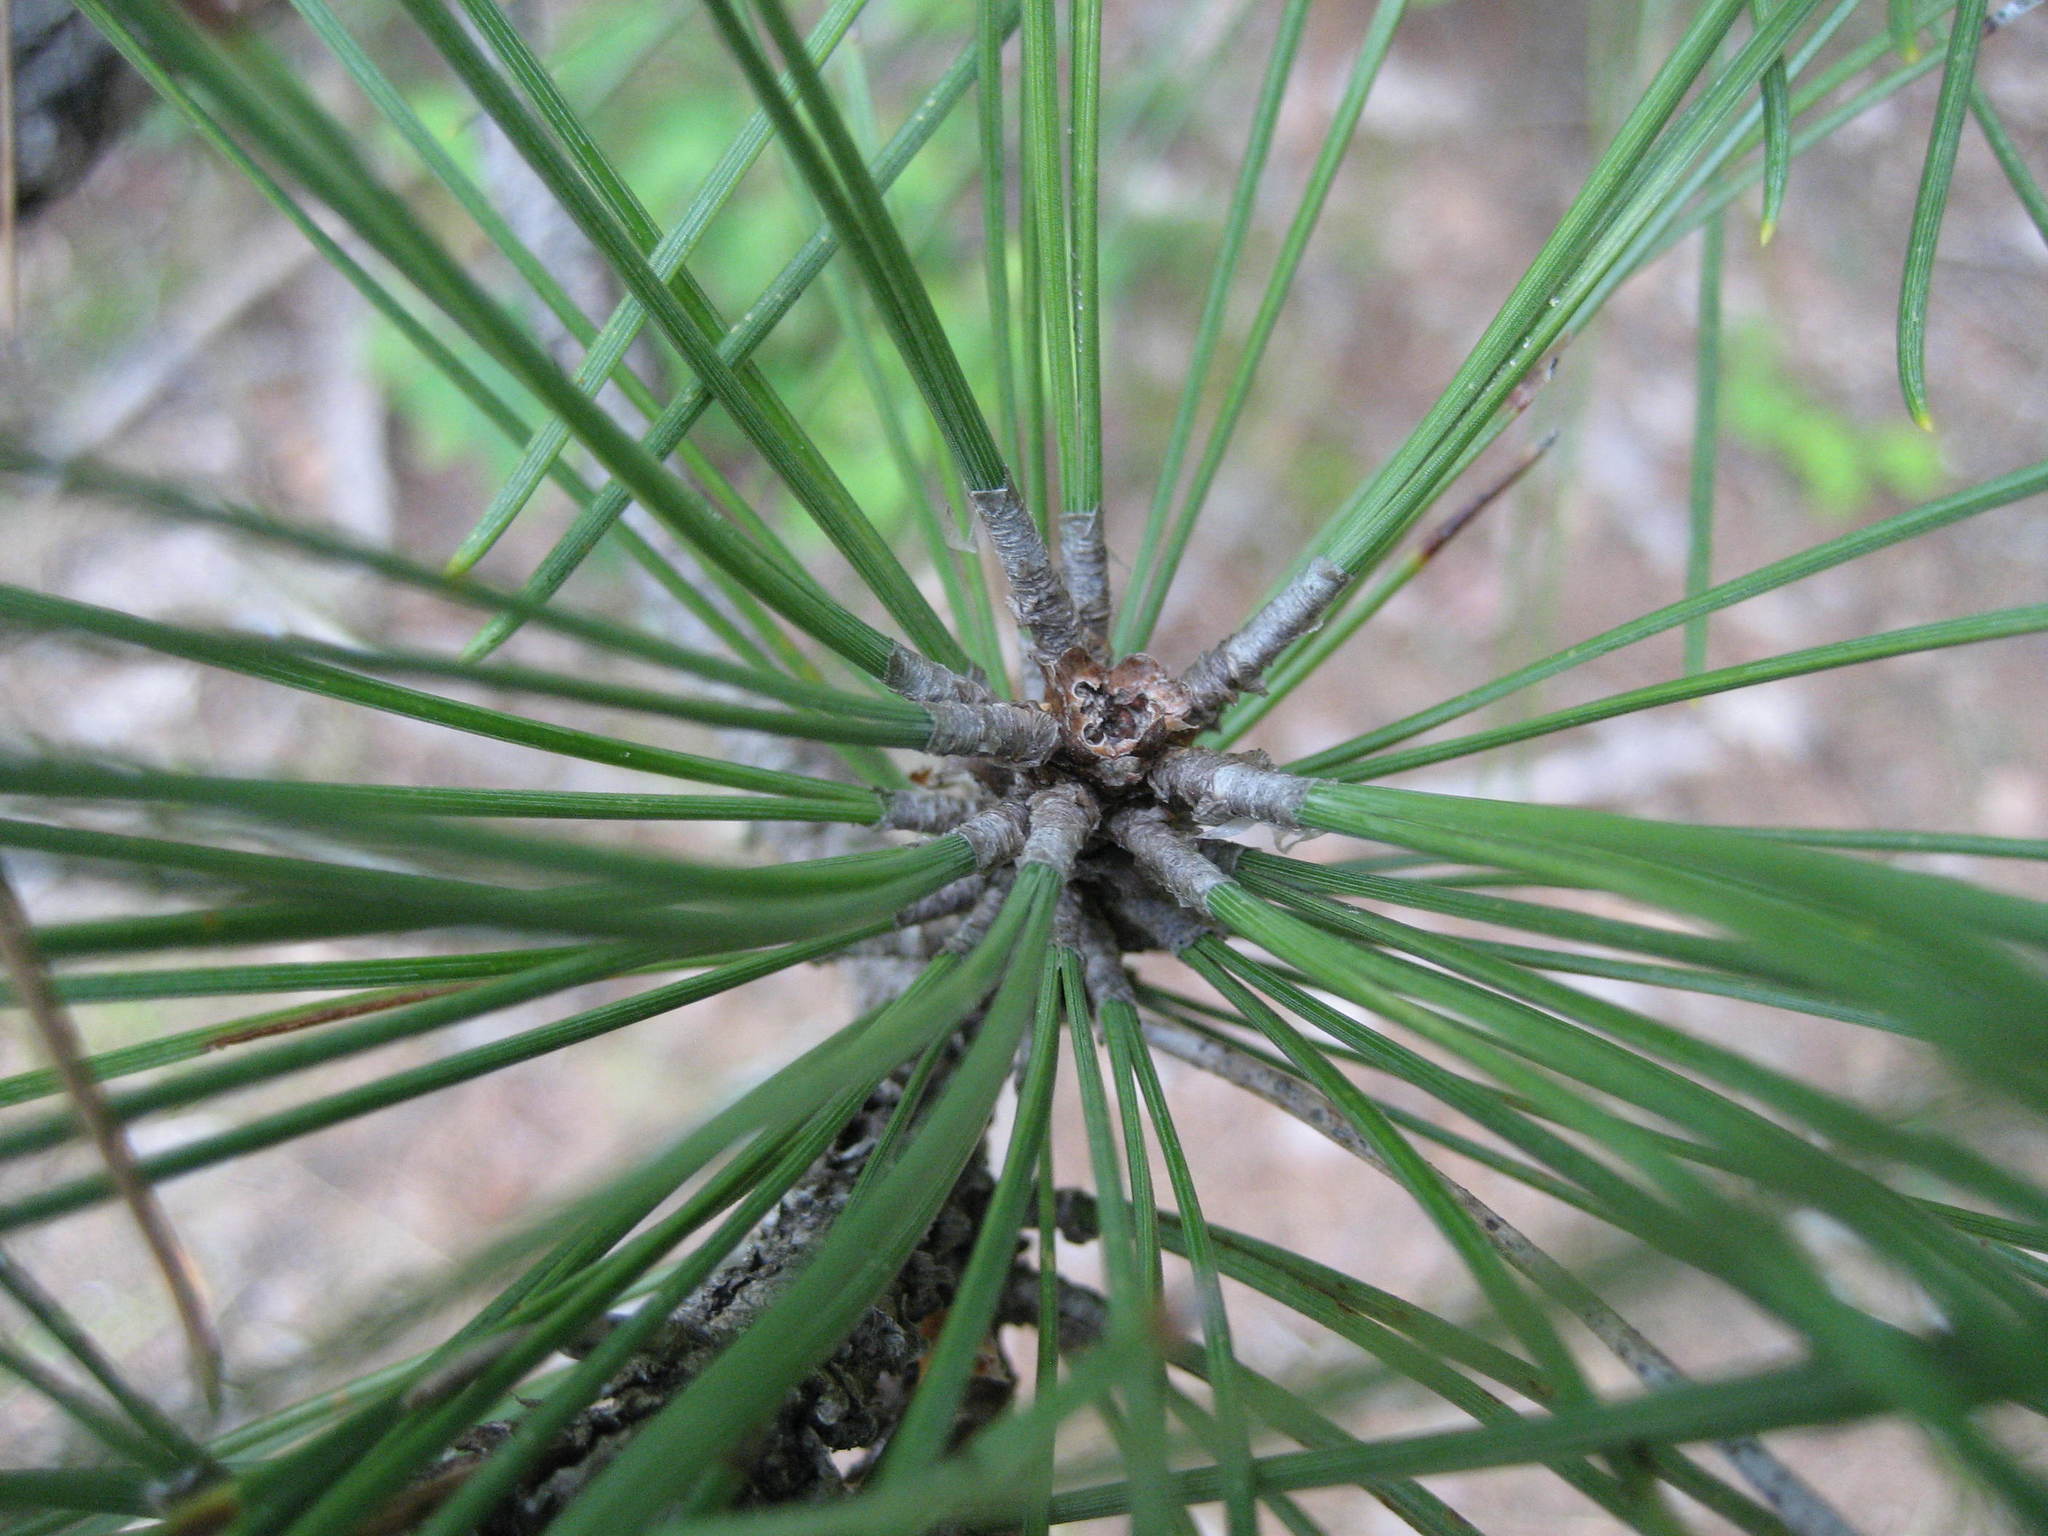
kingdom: Plantae
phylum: Tracheophyta
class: Pinopsida
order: Pinales
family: Pinaceae
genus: Pinus
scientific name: Pinus resinosa
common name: Norway pine
